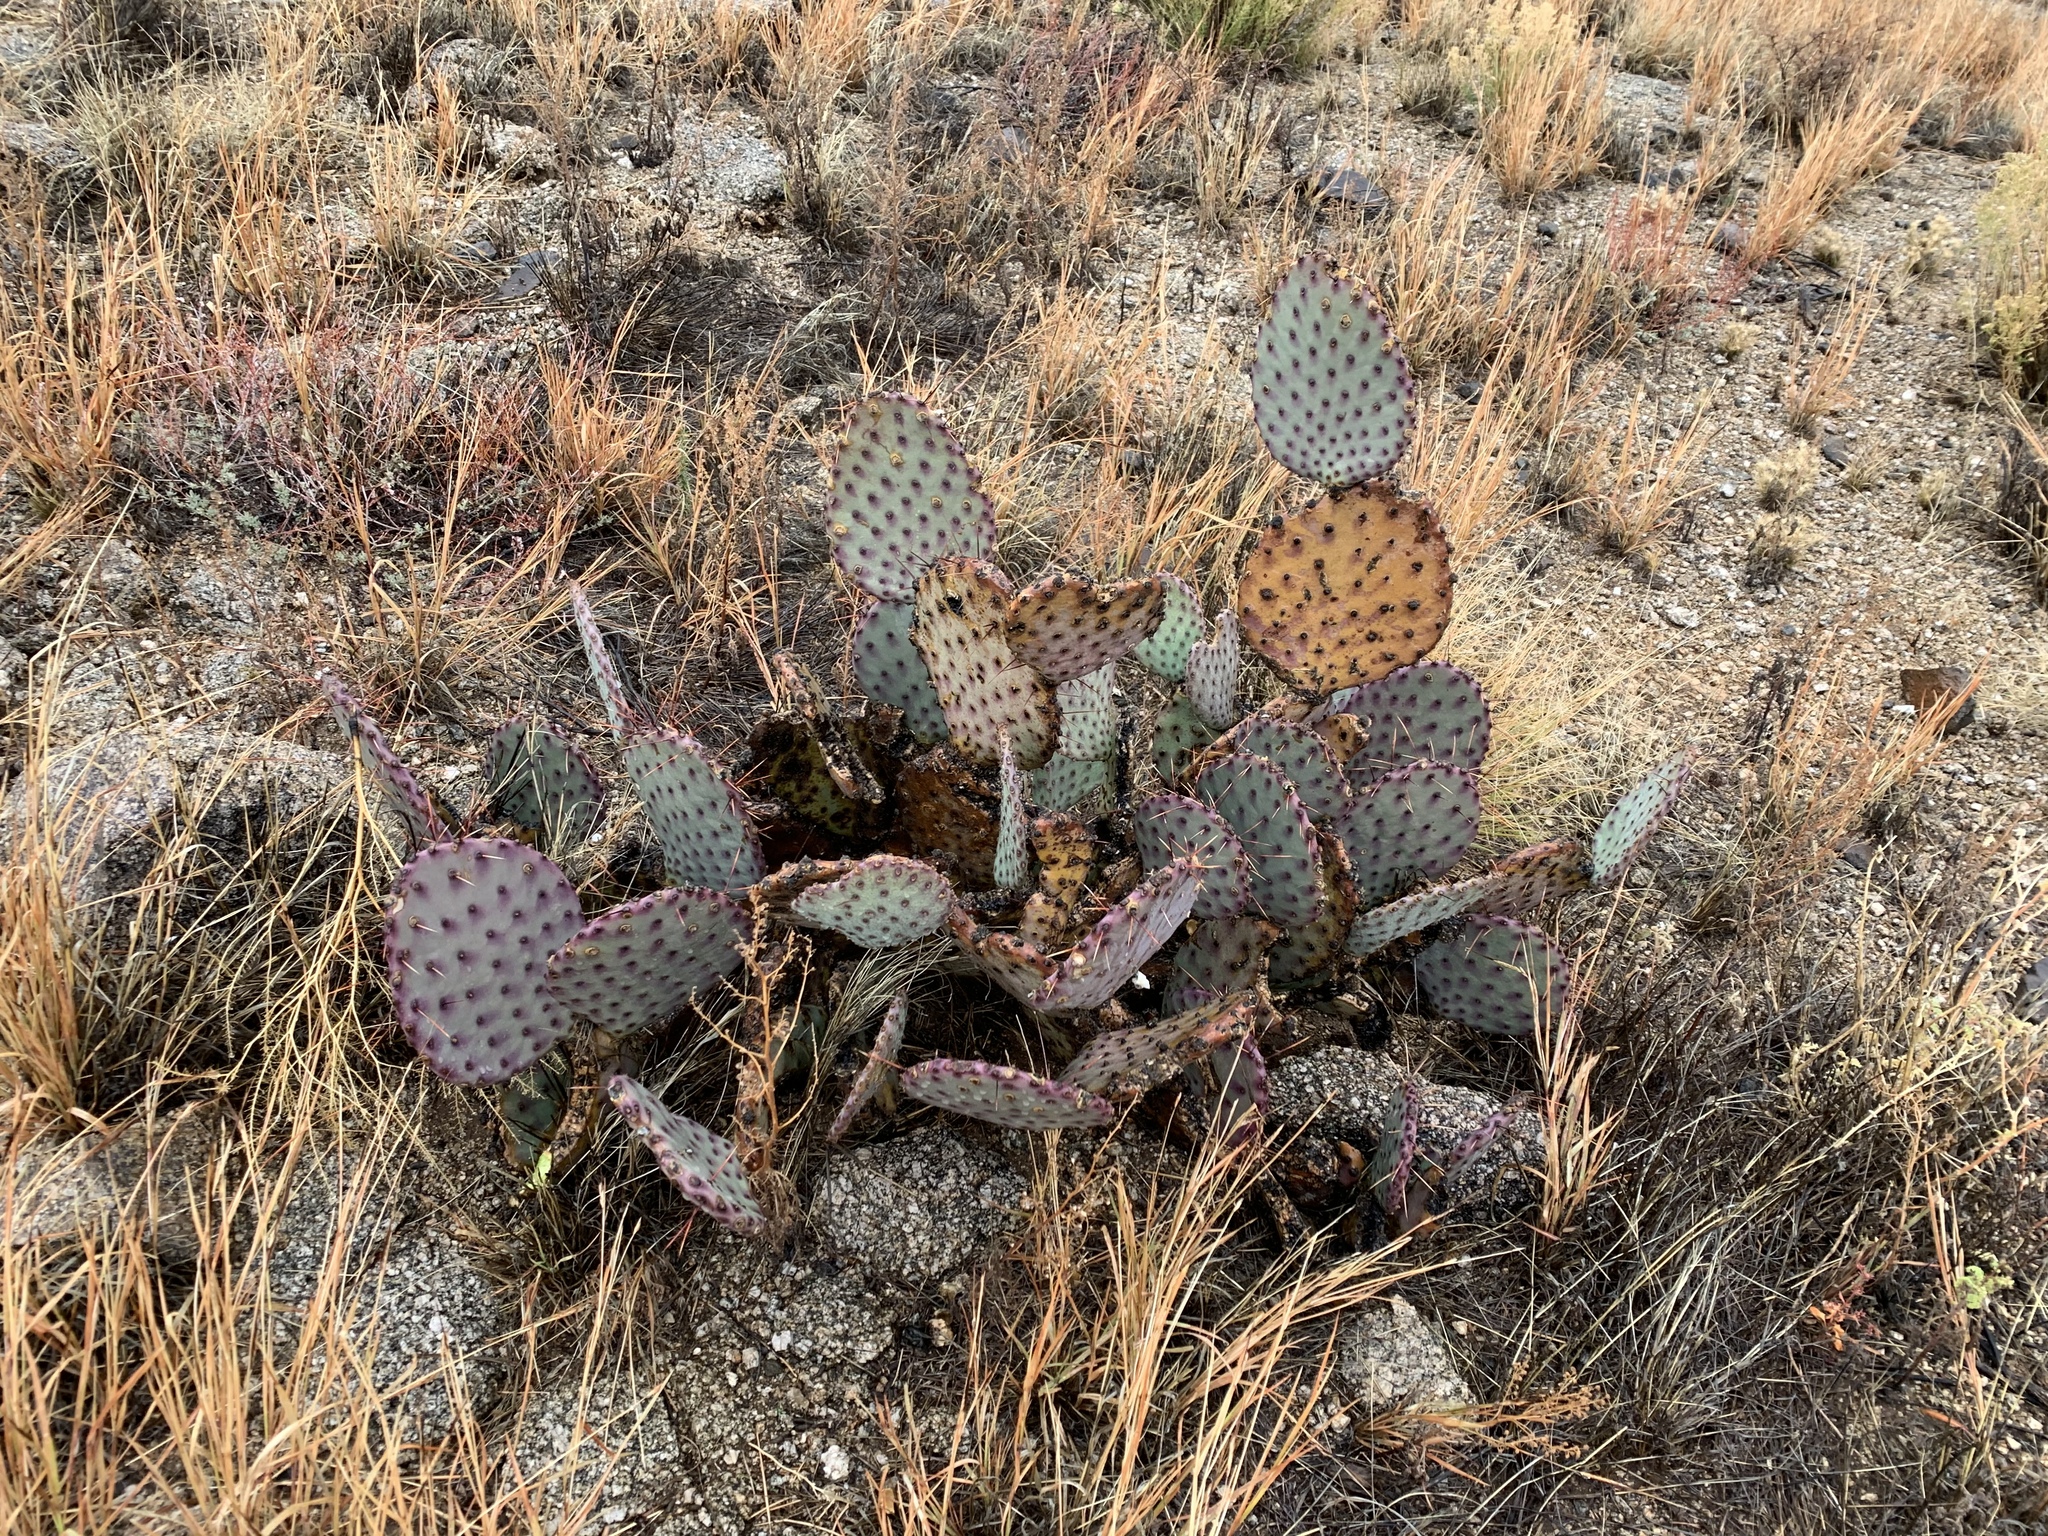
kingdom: Plantae
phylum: Tracheophyta
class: Magnoliopsida
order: Caryophyllales
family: Cactaceae
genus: Opuntia
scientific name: Opuntia macrocentra
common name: Purple prickly-pear
